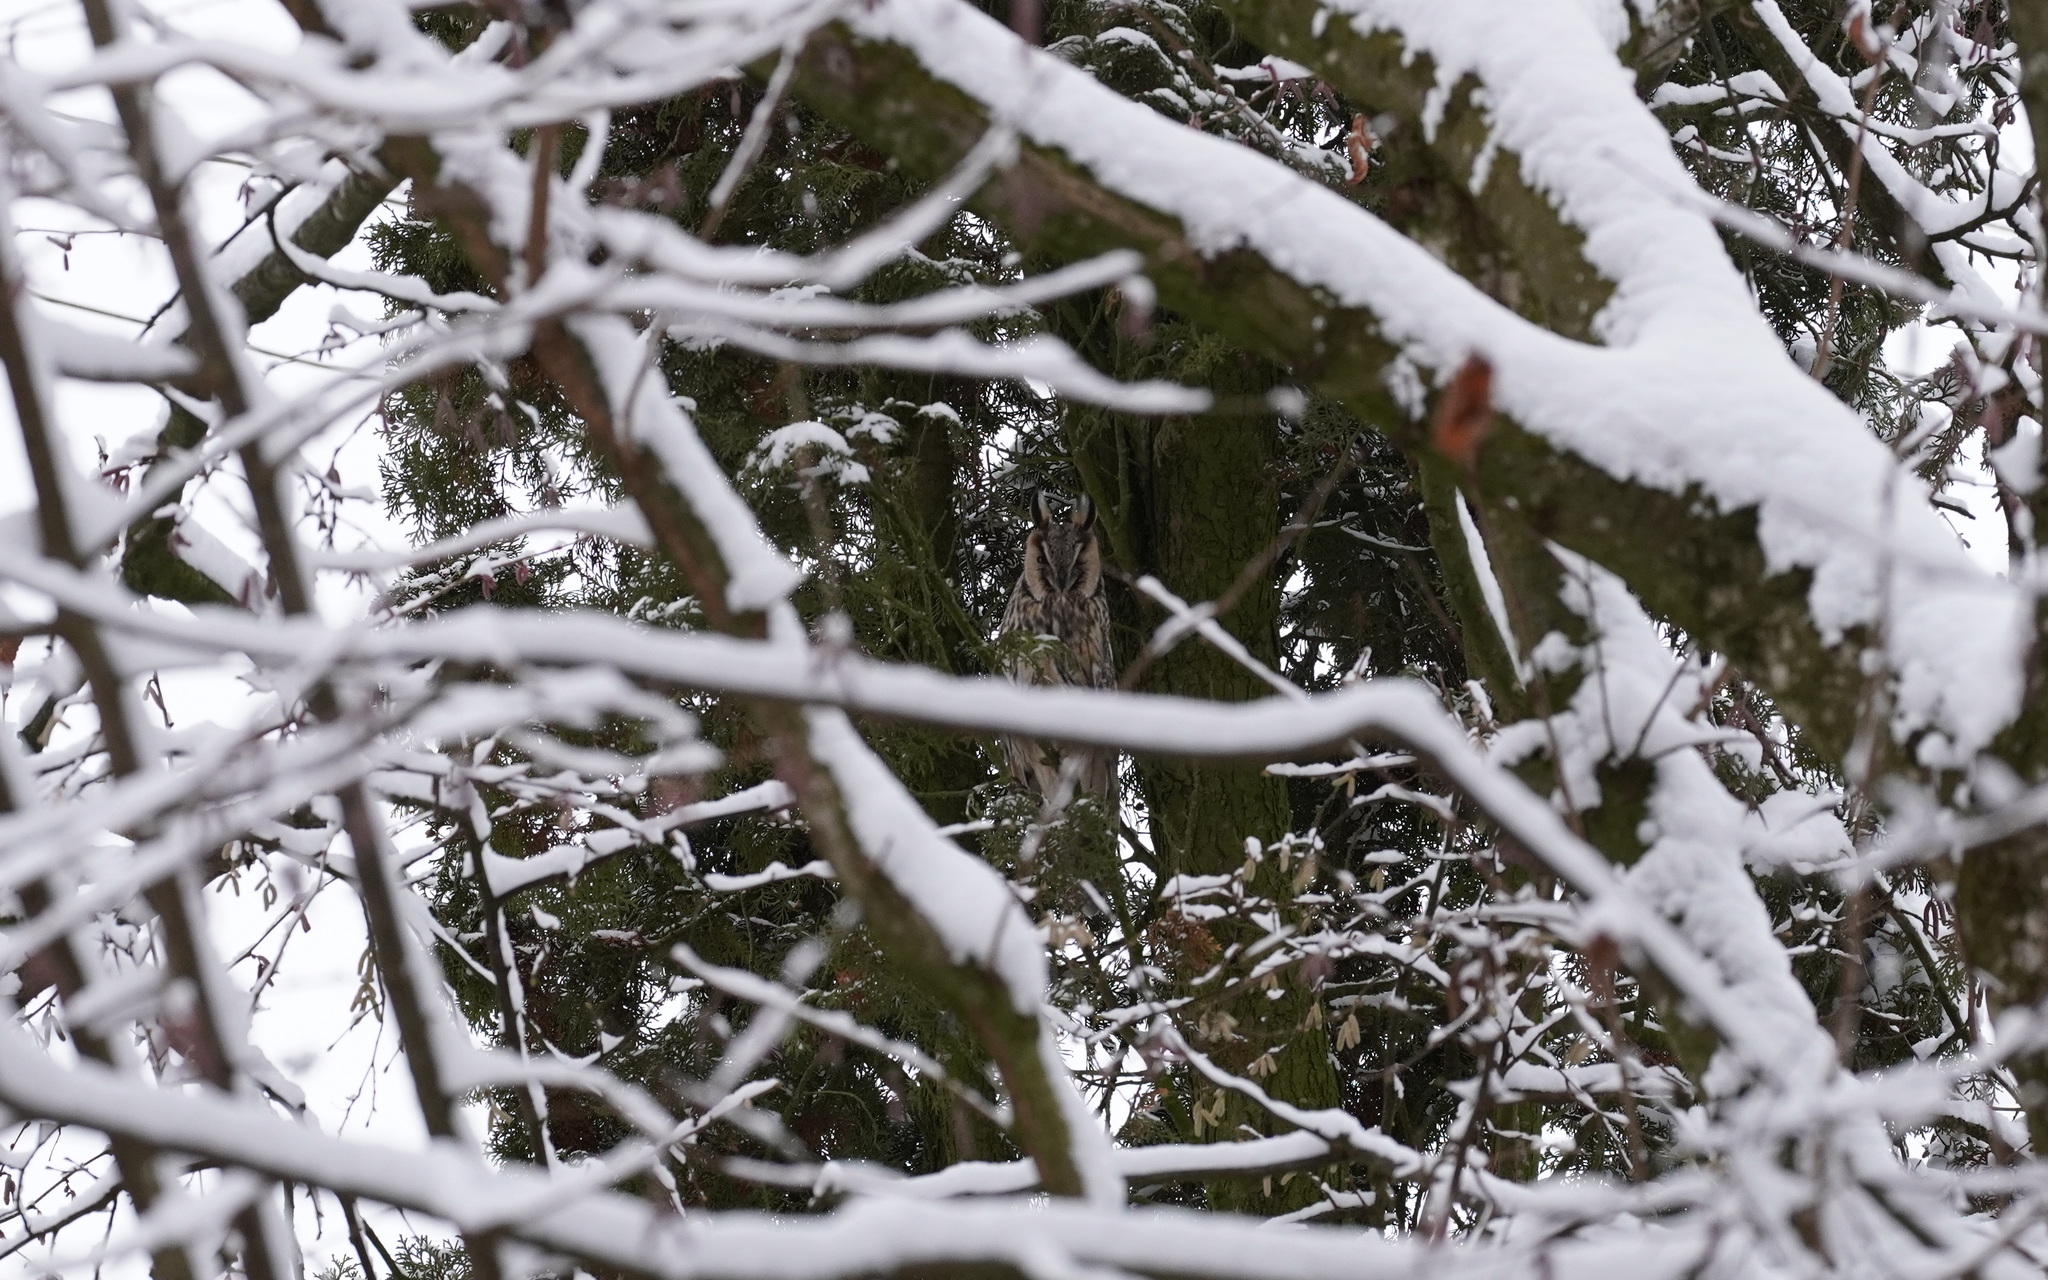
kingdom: Animalia
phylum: Chordata
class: Aves
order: Strigiformes
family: Strigidae
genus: Asio
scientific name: Asio otus
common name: Long-eared owl
